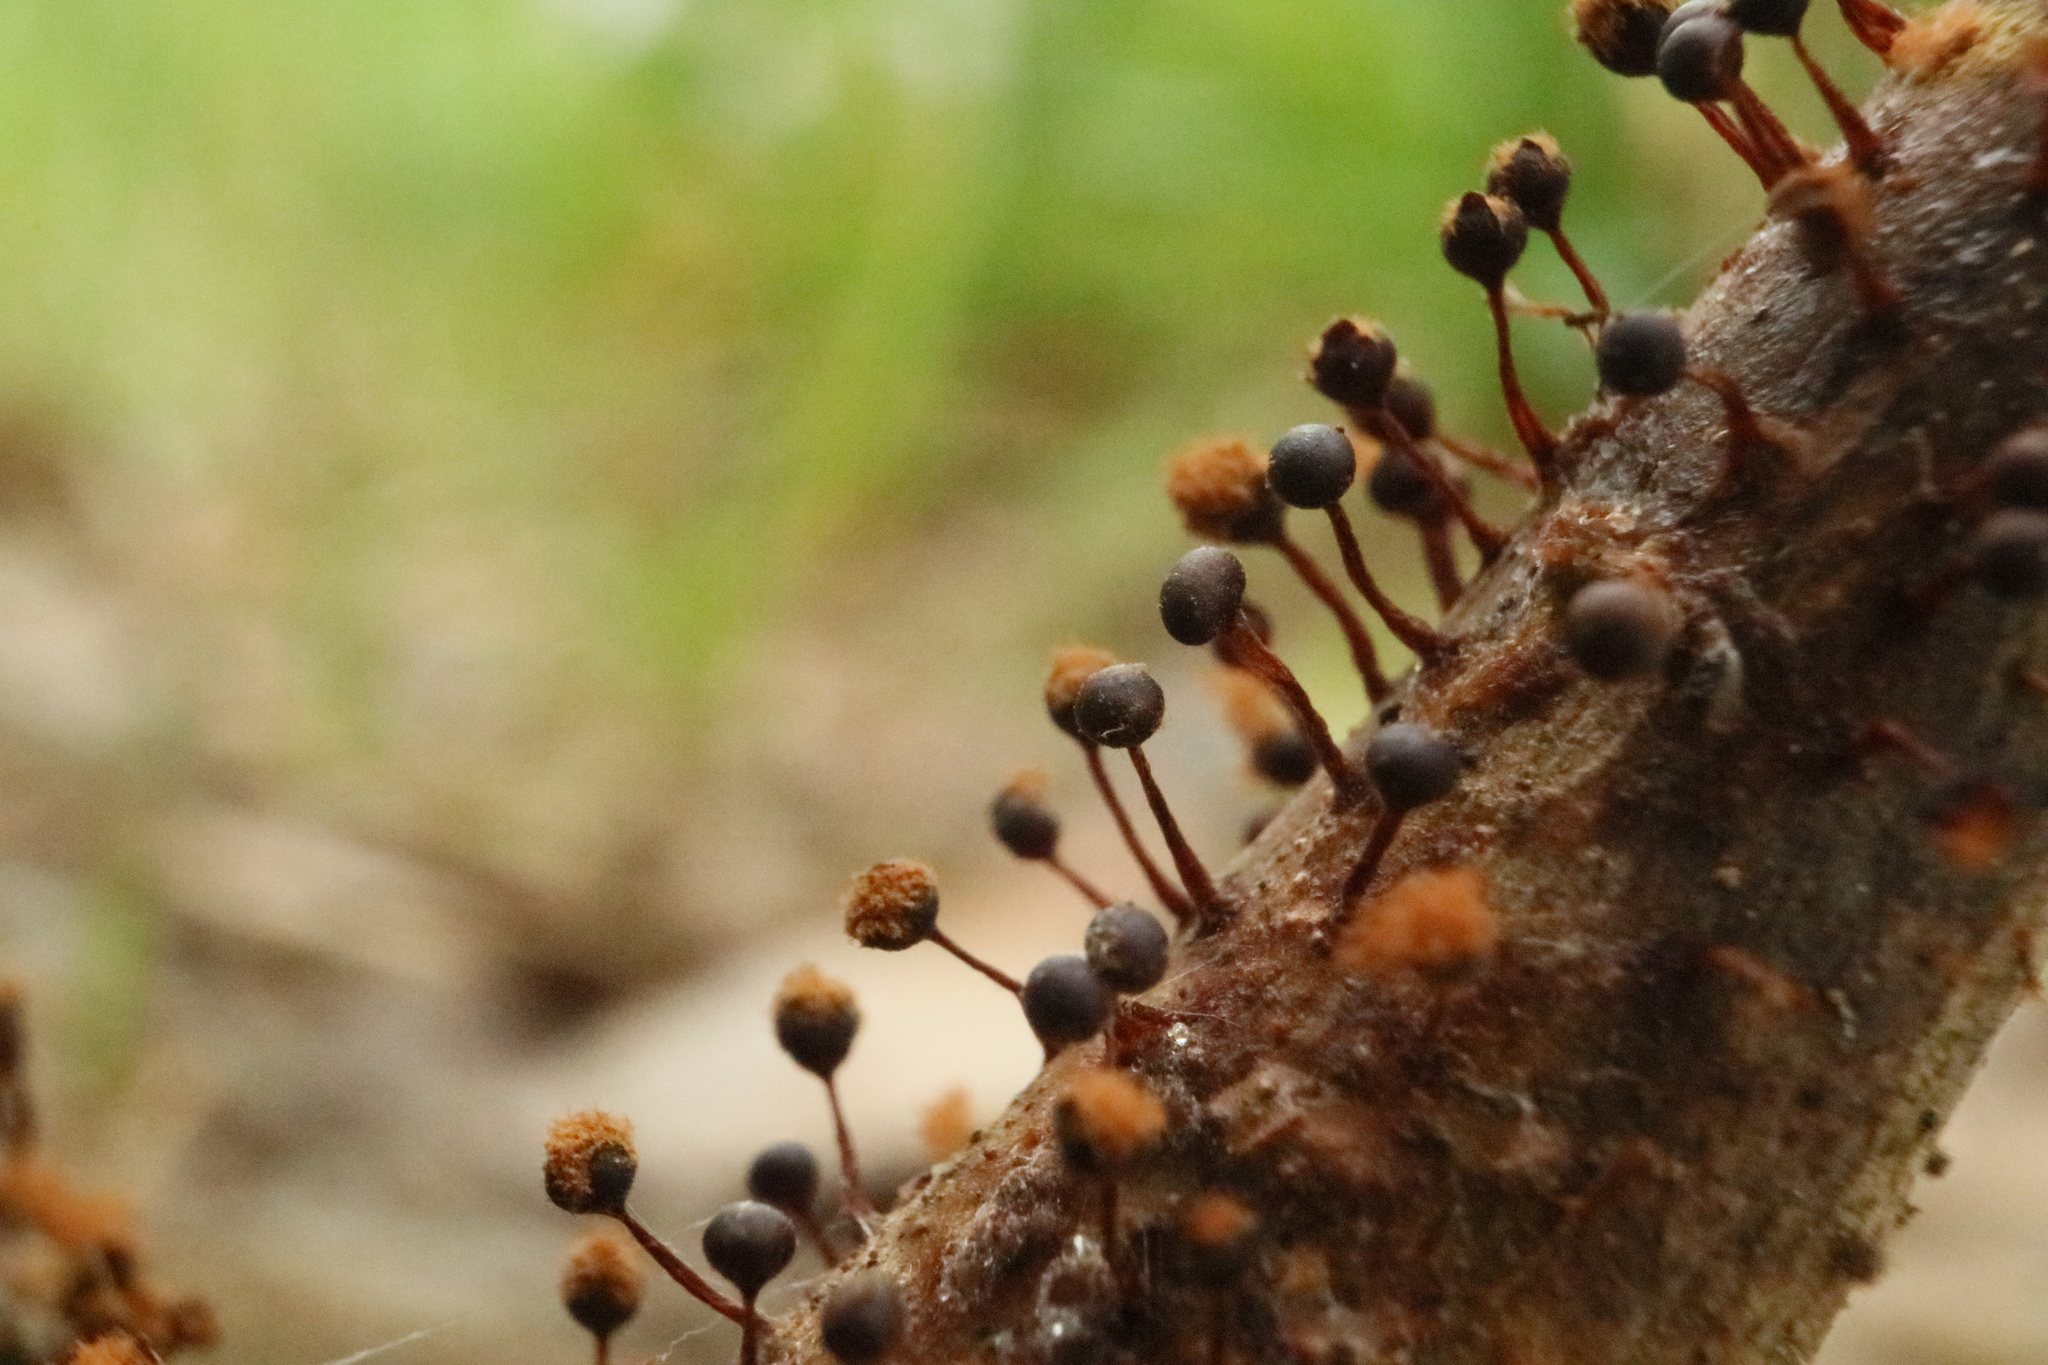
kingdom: Protozoa
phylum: Mycetozoa
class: Myxomycetes
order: Trichiales
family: Trichiaceae
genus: Metatrichia
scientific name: Metatrichia floriformis
